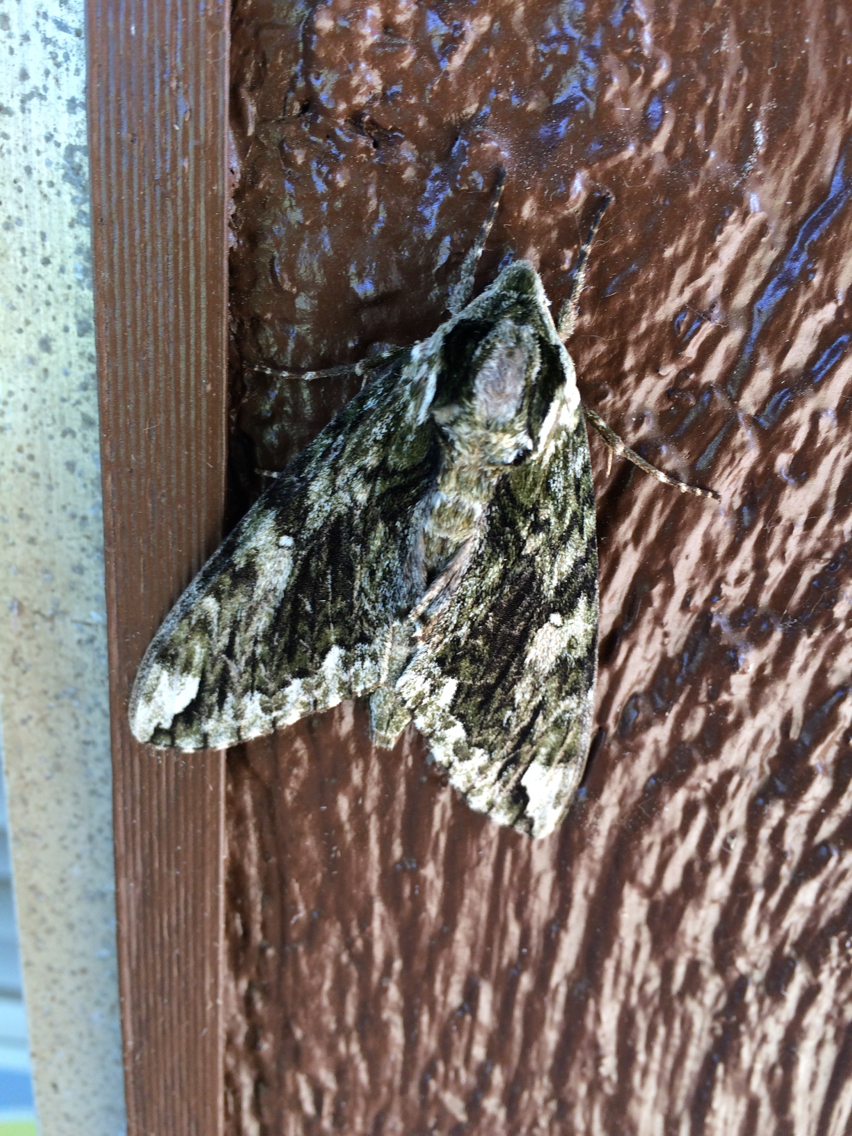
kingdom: Animalia
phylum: Arthropoda
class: Insecta
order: Lepidoptera
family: Sphingidae
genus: Ceratomia
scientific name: Ceratomia hageni
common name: Hagen's sphinx
